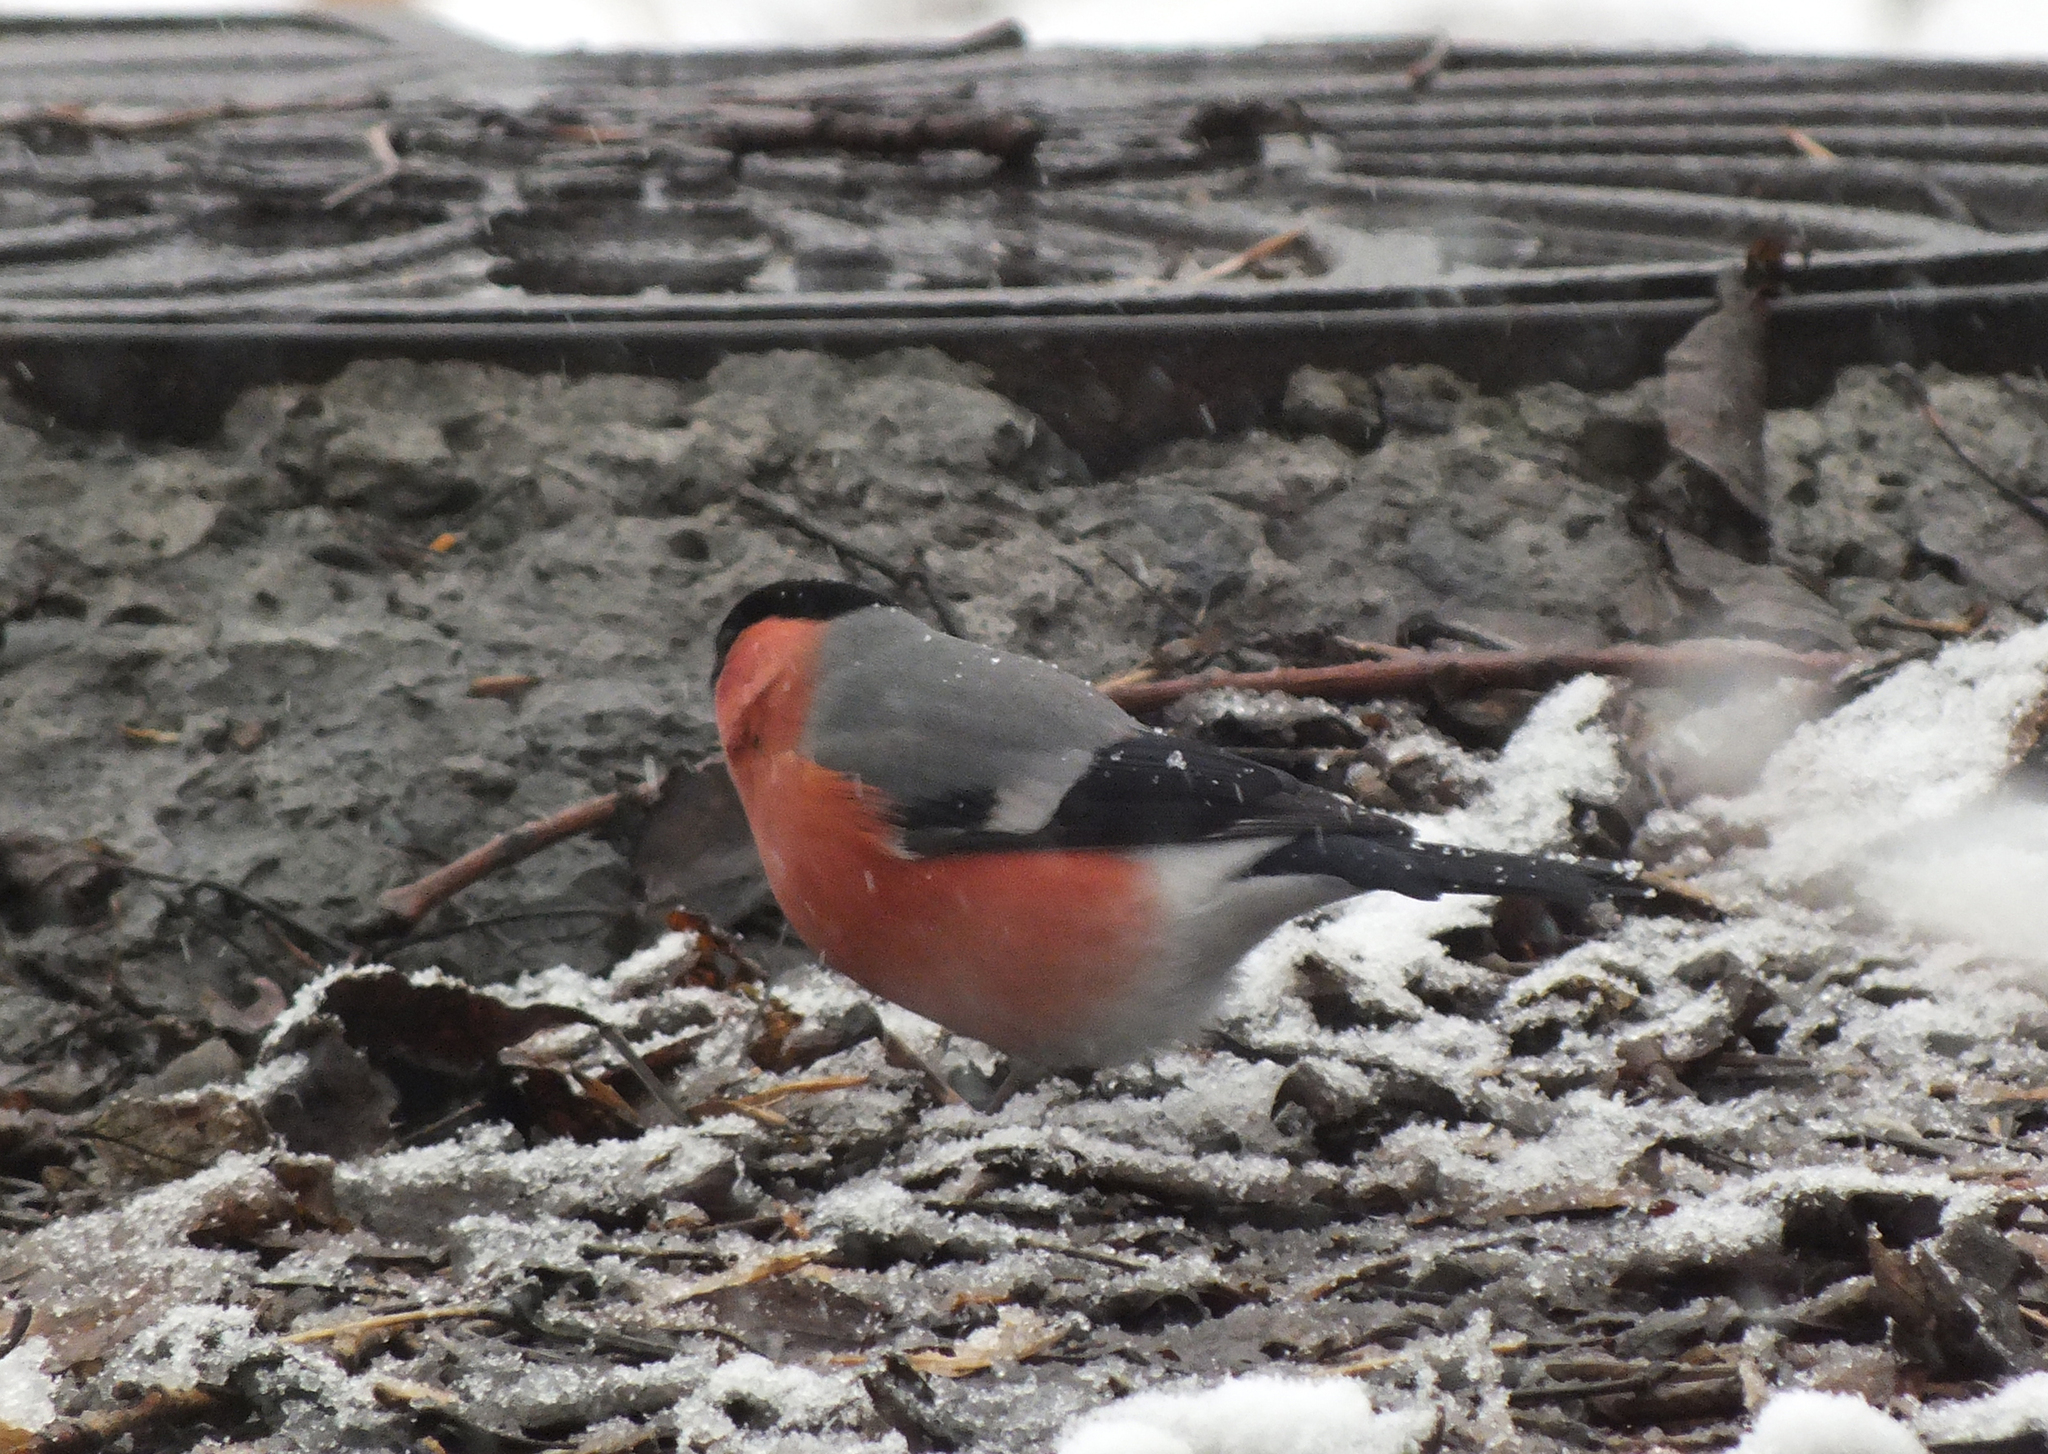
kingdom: Animalia
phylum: Chordata
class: Aves
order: Passeriformes
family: Fringillidae
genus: Pyrrhula
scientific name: Pyrrhula pyrrhula
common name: Eurasian bullfinch
